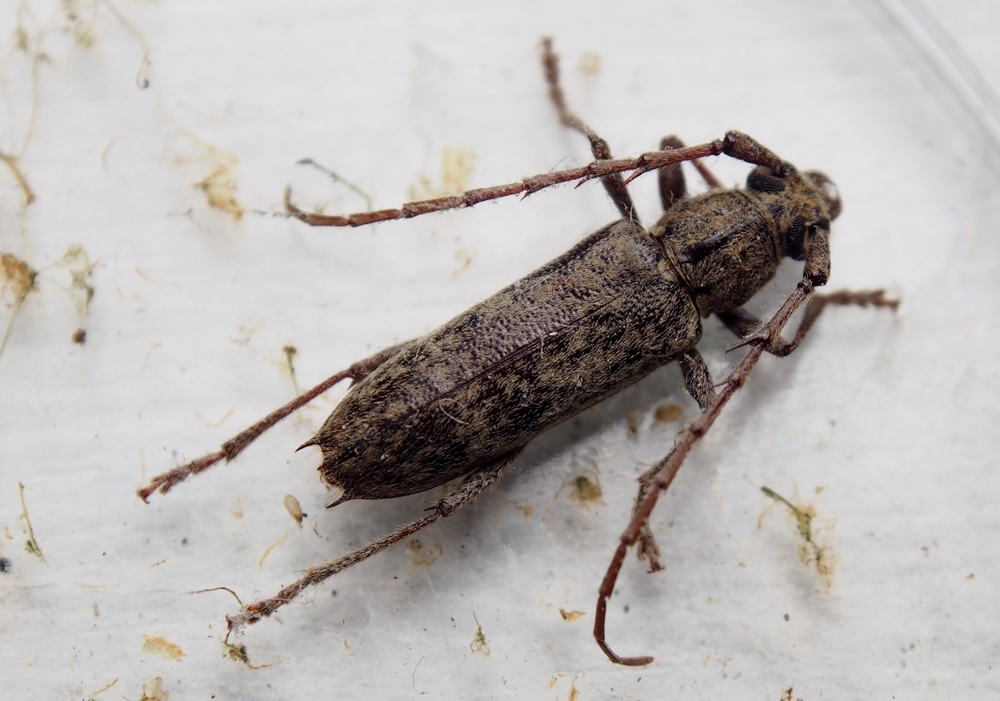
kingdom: Animalia
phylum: Arthropoda
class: Insecta
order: Coleoptera
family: Cerambycidae
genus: Elaphidion
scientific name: Elaphidion mucronatum
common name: Spined oak borer
